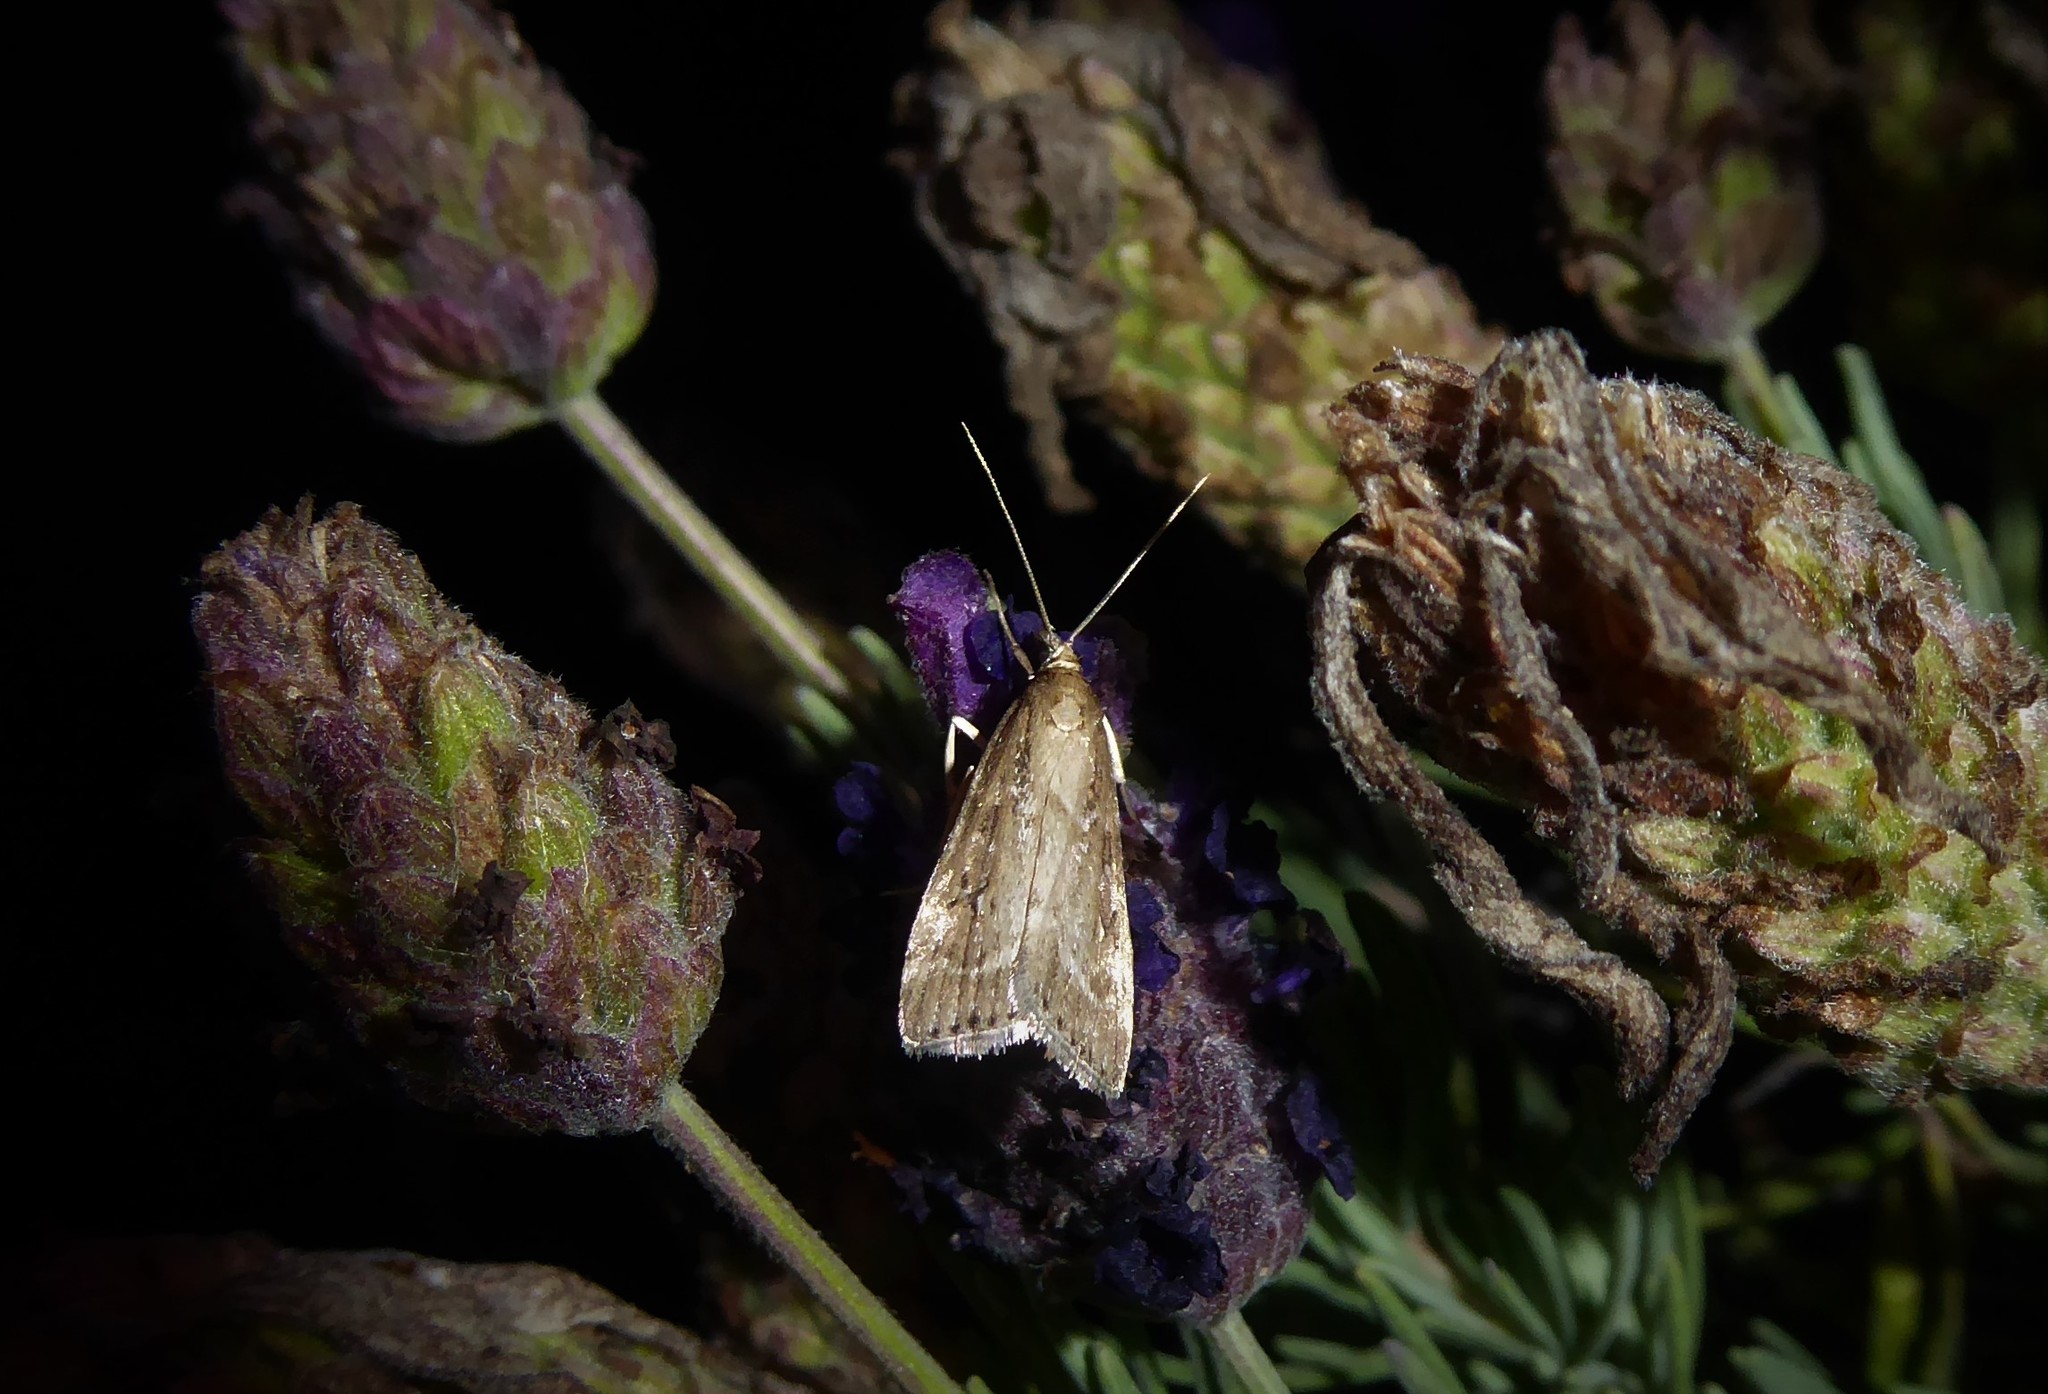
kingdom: Animalia
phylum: Arthropoda
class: Insecta
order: Lepidoptera
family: Crambidae
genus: Eudonia
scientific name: Eudonia octophora
